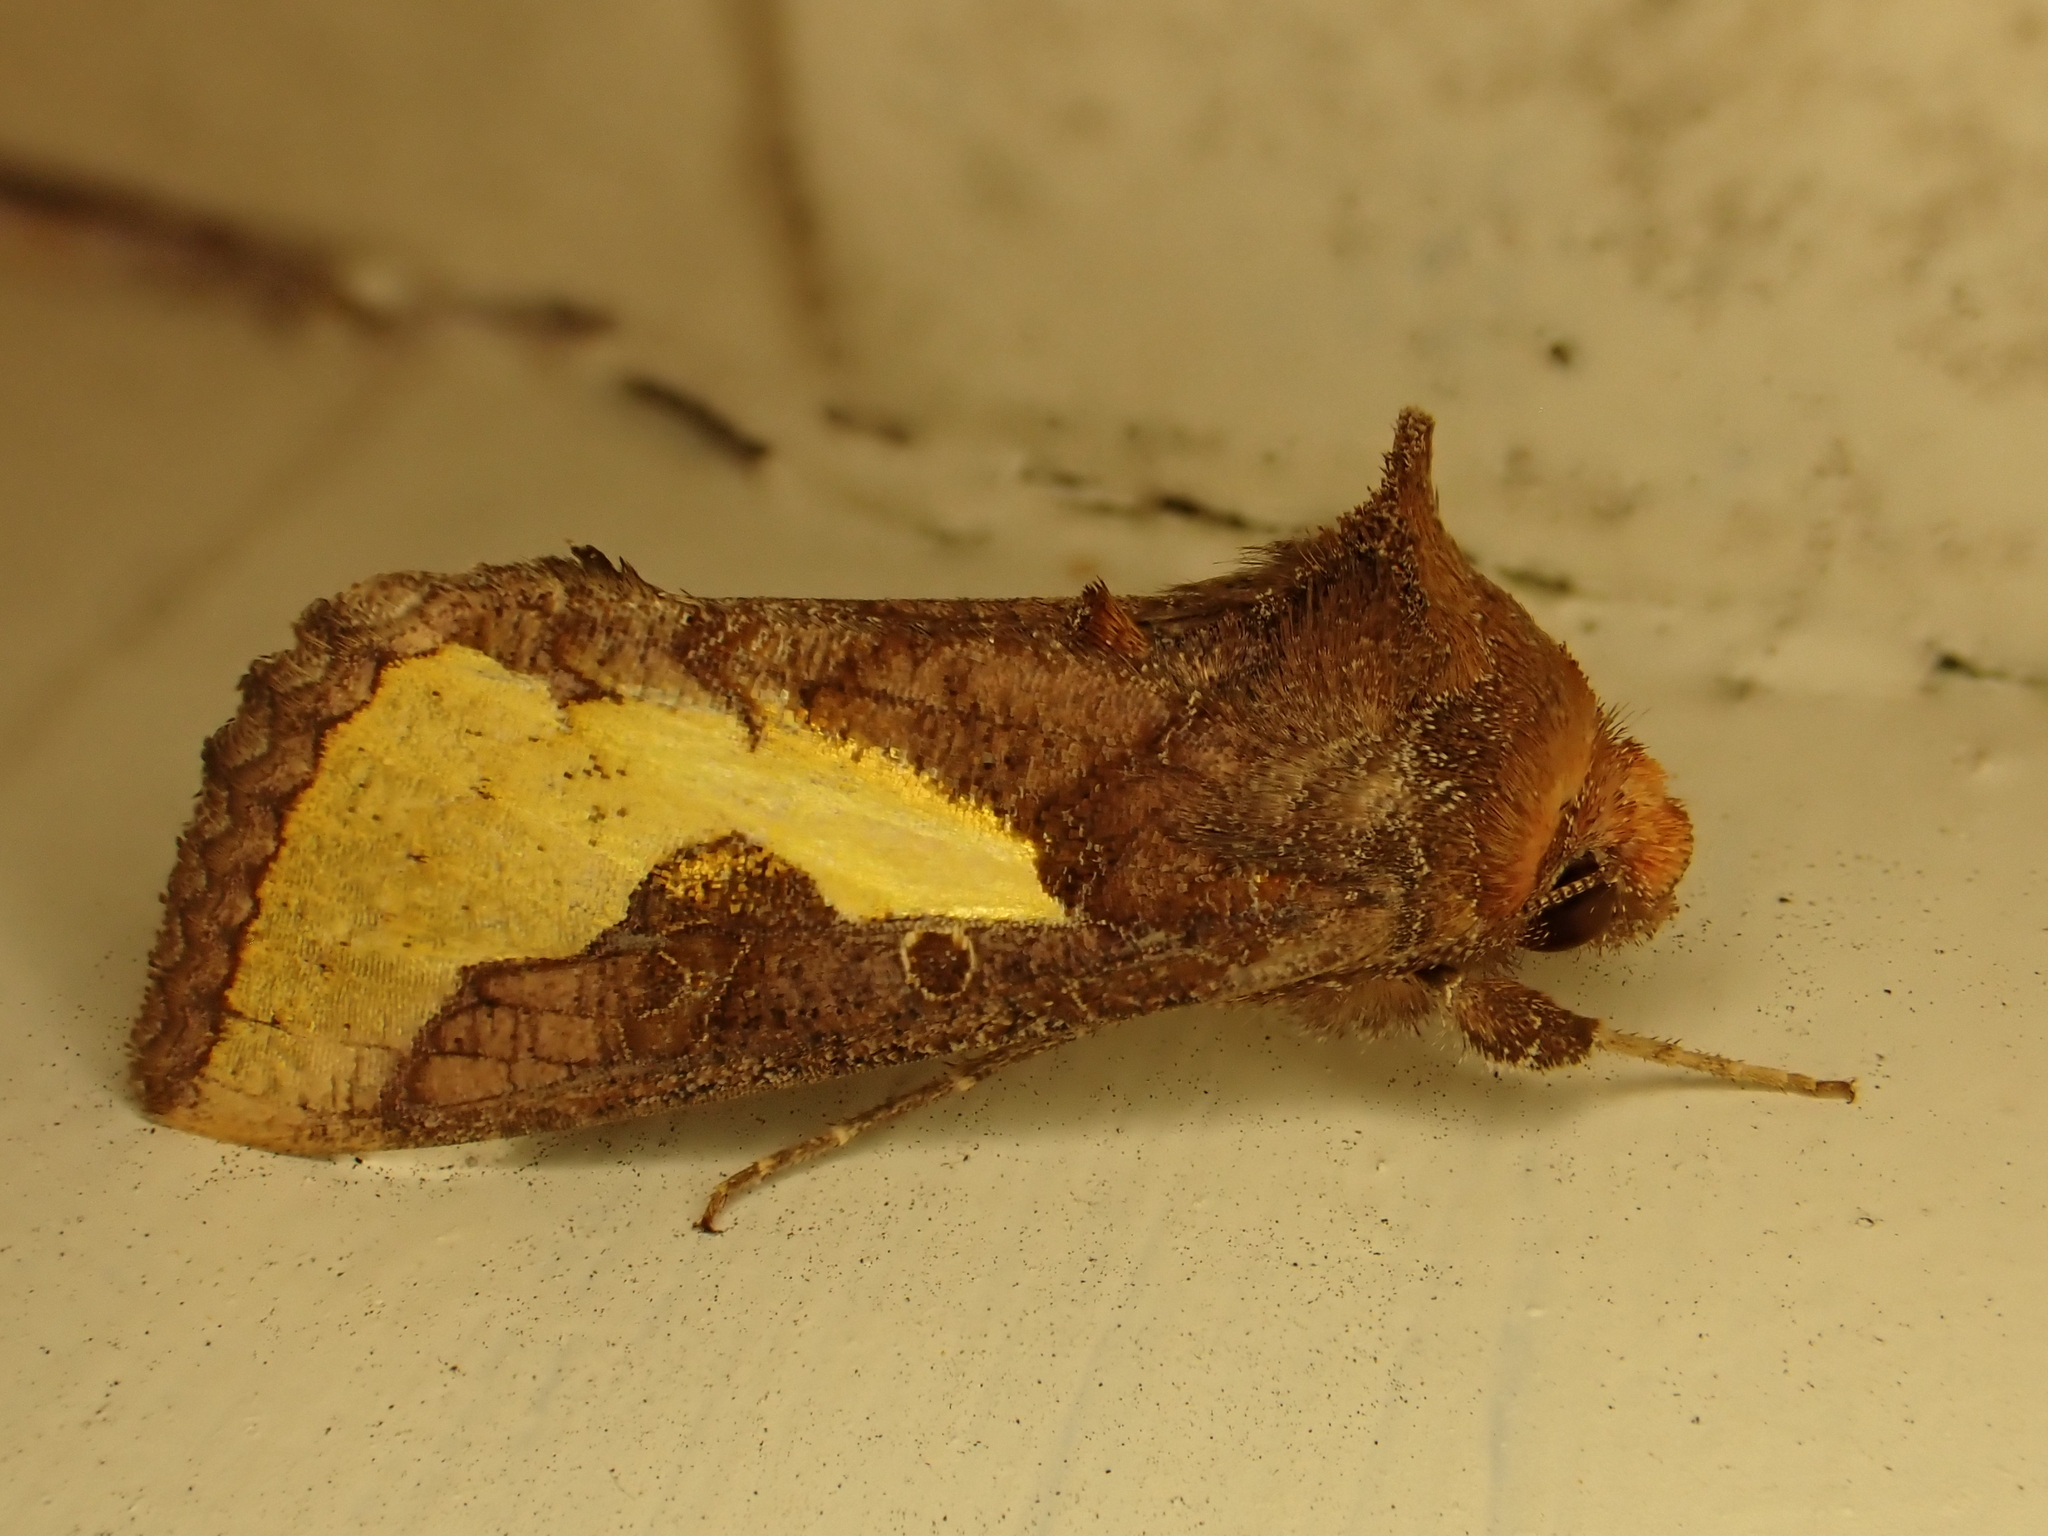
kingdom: Animalia
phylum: Arthropoda
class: Insecta
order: Lepidoptera
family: Noctuidae
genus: Thysanoplusia
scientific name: Thysanoplusia orichalcea
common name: Slender burnished brass, golden plusia
